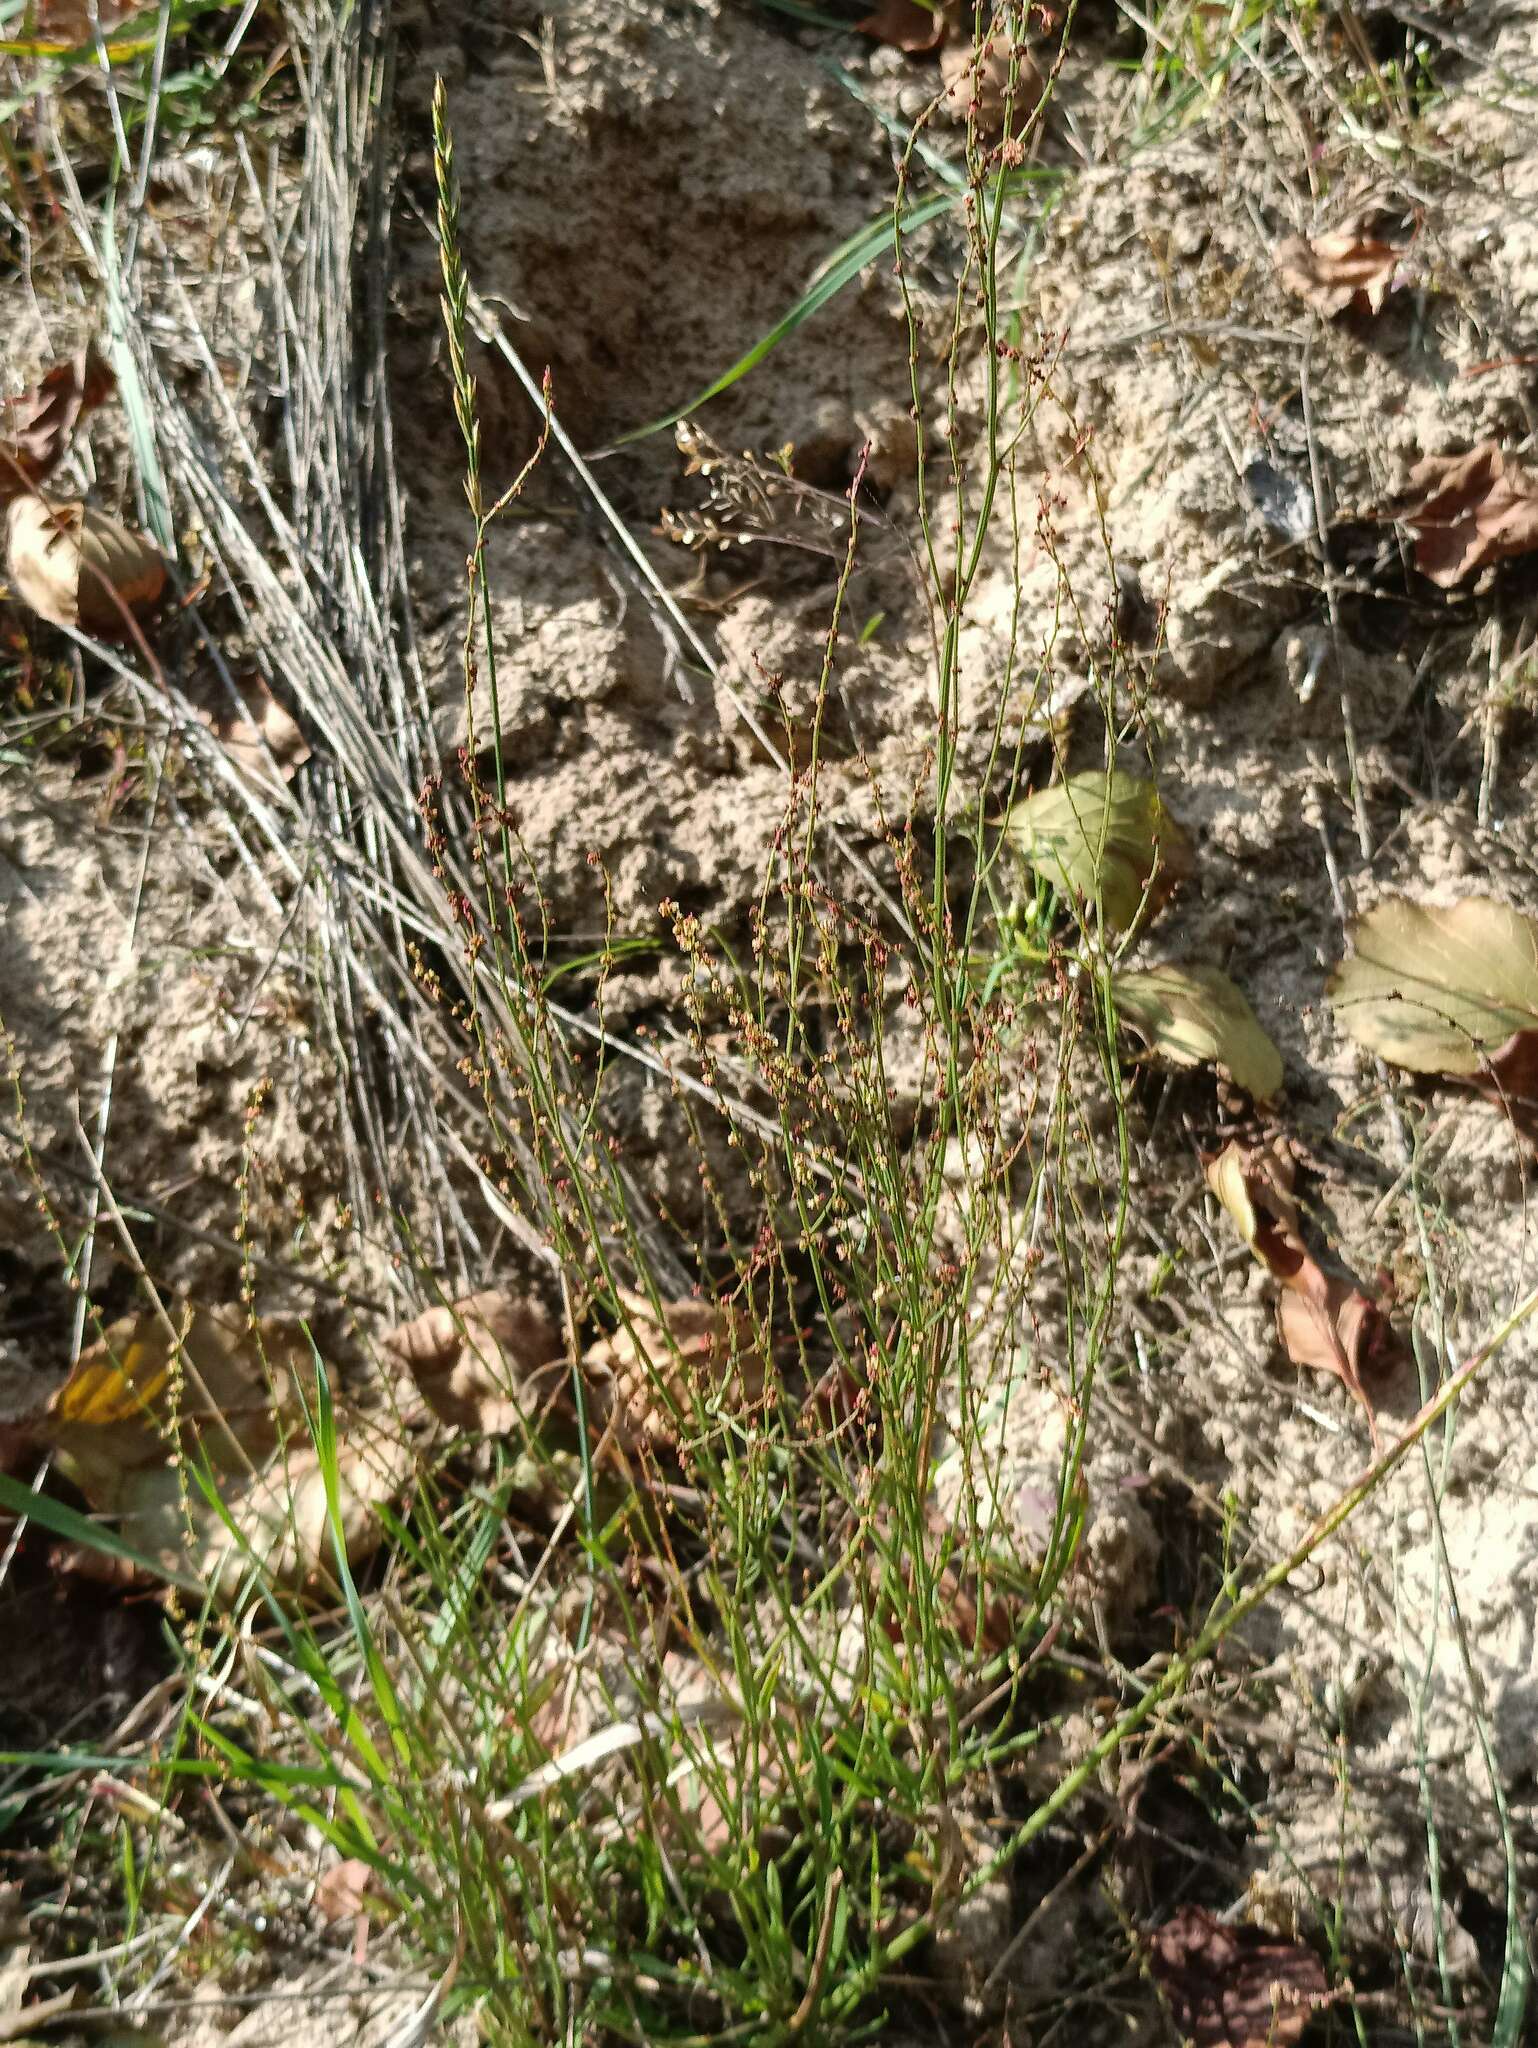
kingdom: Plantae
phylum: Tracheophyta
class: Magnoliopsida
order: Caryophyllales
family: Polygonaceae
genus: Rumex
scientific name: Rumex acetosella
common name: Common sheep sorrel
